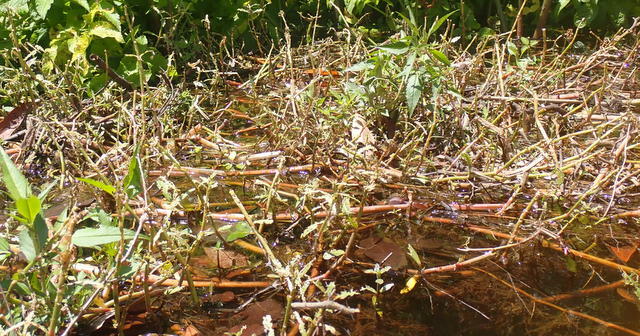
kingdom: Plantae
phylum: Tracheophyta
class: Magnoliopsida
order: Caryophyllales
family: Amaranthaceae
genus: Alternanthera
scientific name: Alternanthera philoxeroides
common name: Alligatorweed
